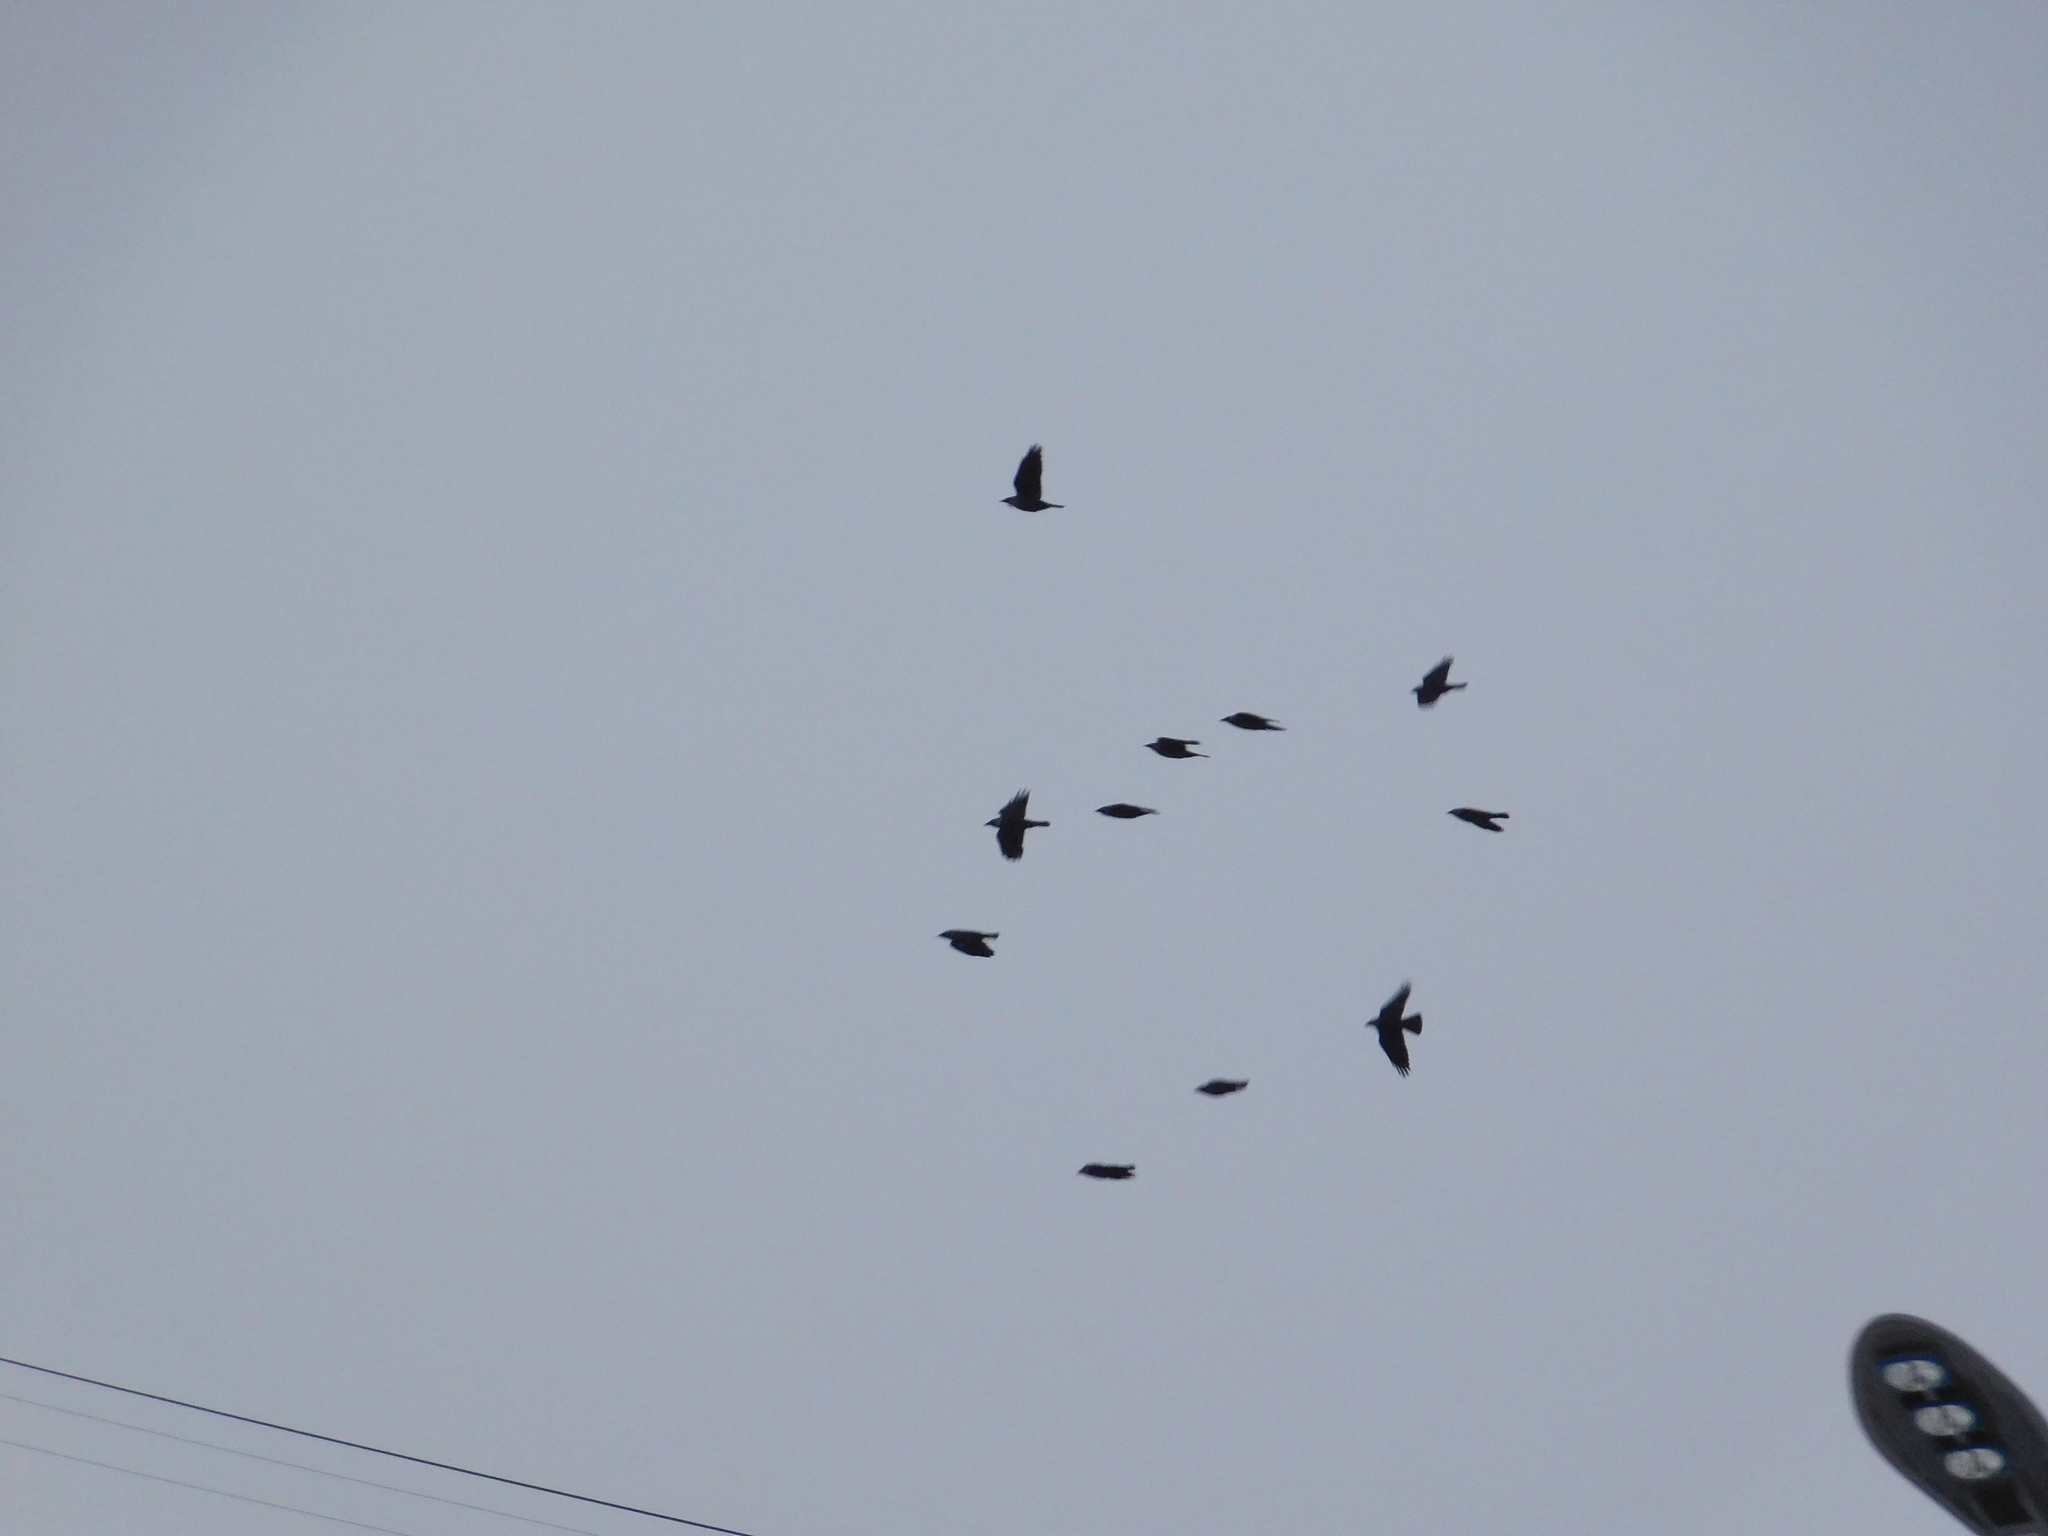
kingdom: Animalia
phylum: Chordata
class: Aves
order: Passeriformes
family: Corvidae
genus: Coloeus
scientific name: Coloeus monedula
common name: Western jackdaw
